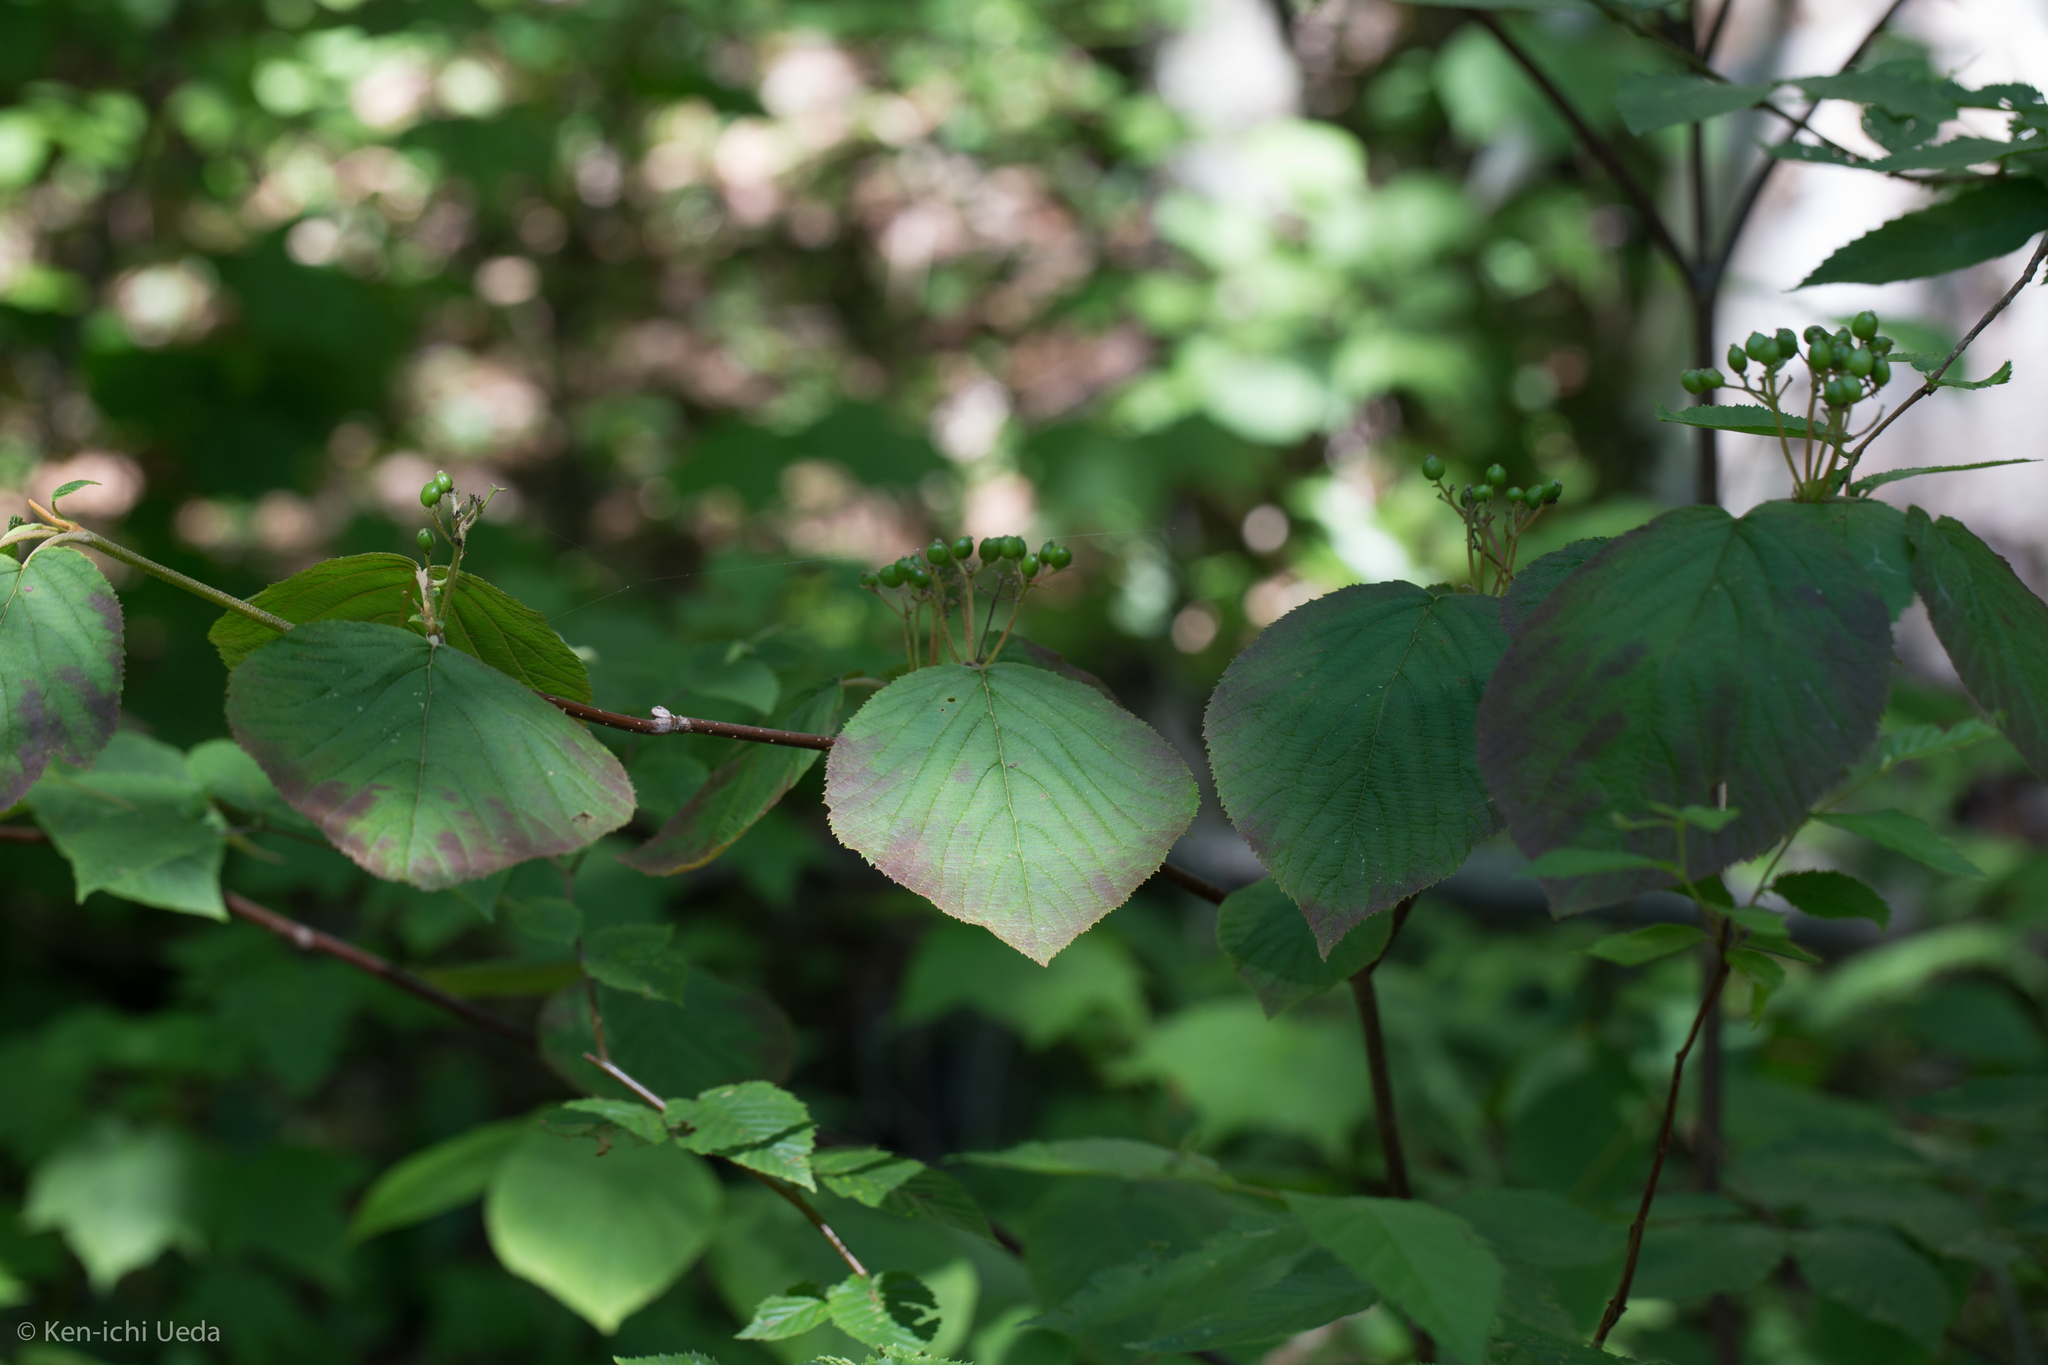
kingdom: Plantae
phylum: Tracheophyta
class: Magnoliopsida
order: Dipsacales
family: Viburnaceae
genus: Viburnum
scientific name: Viburnum lantanoides
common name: Hobblebush
